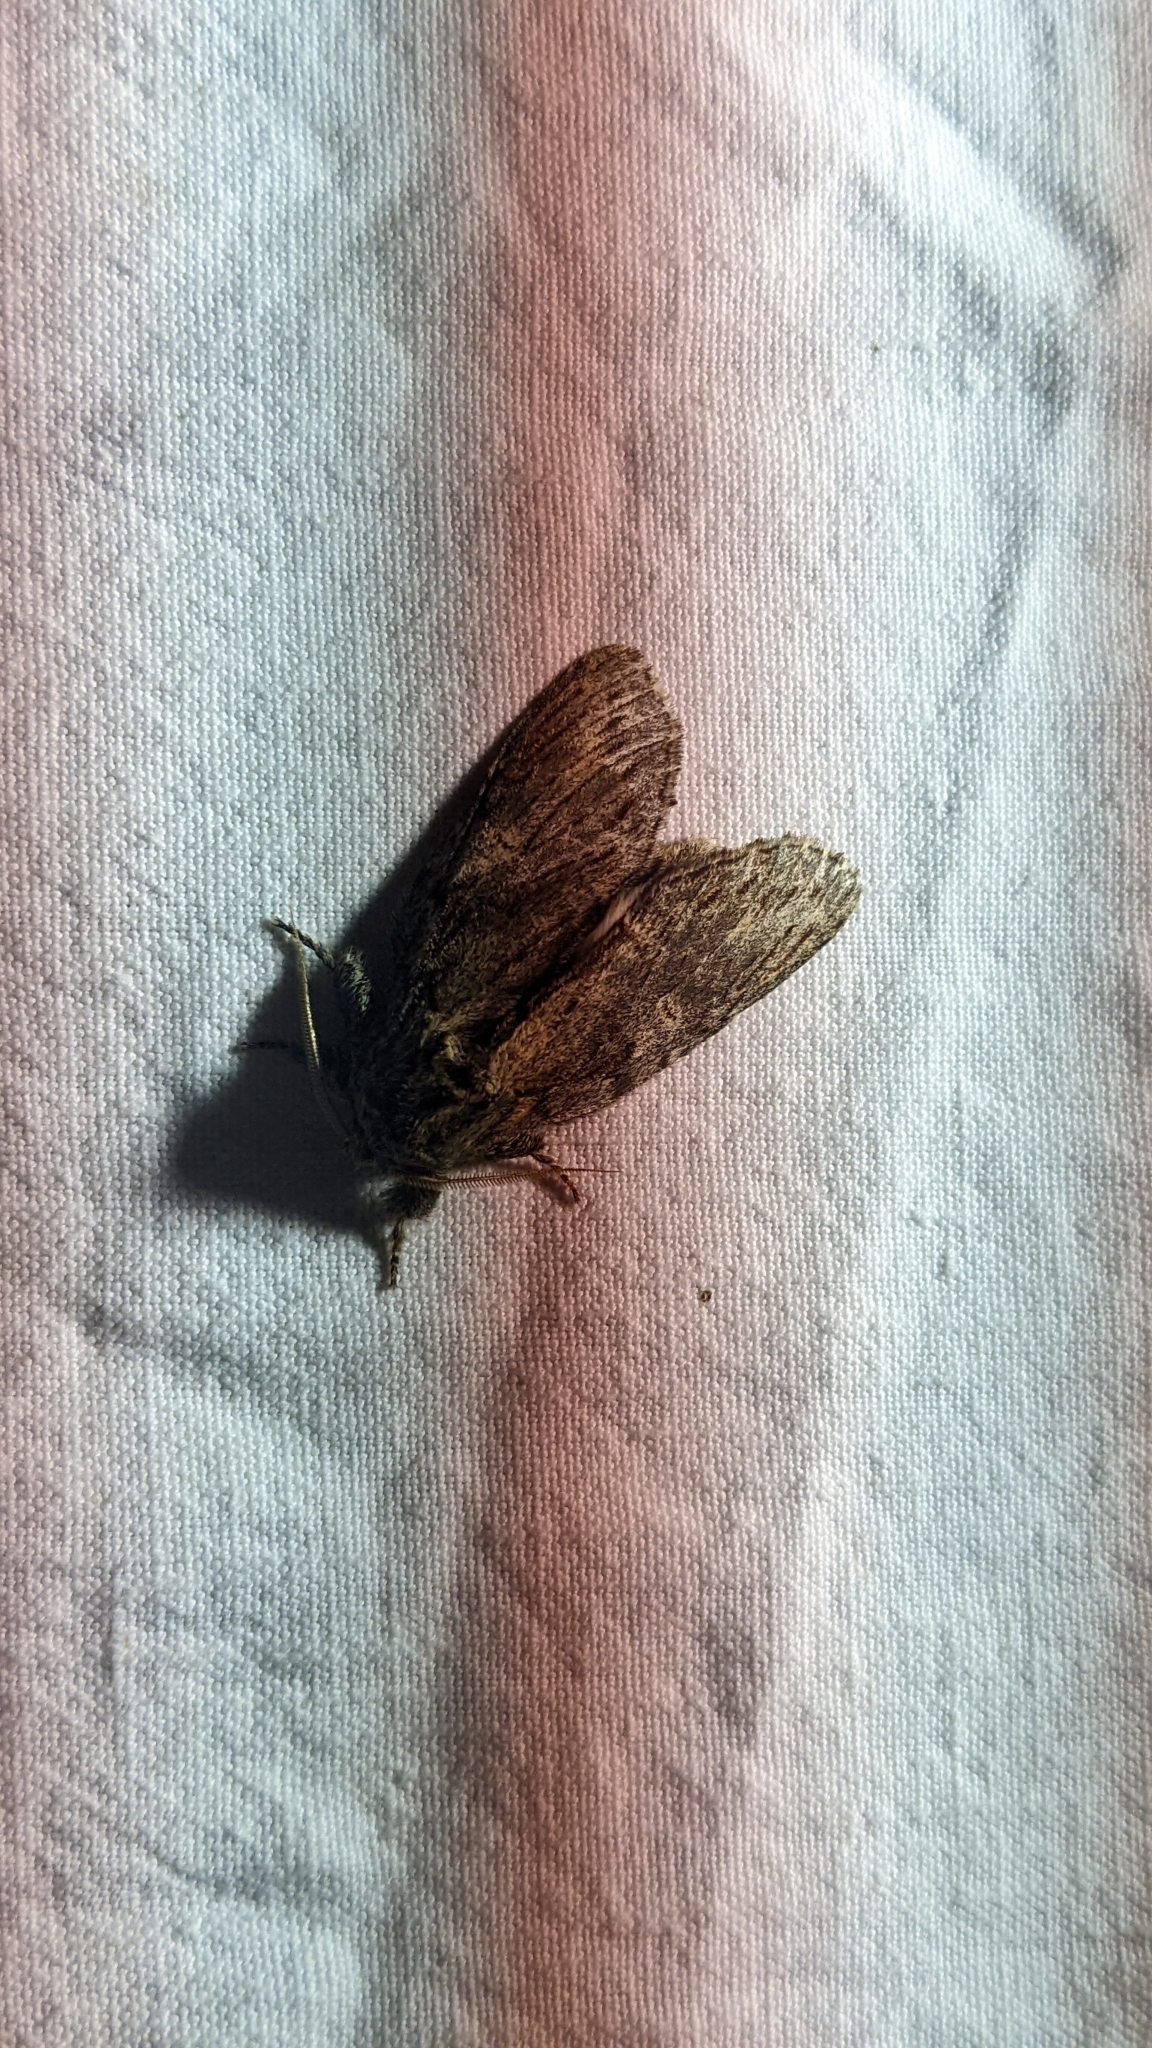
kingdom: Animalia
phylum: Arthropoda
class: Insecta
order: Lepidoptera
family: Notodontidae
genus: Peridea
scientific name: Peridea anceps
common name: Great prominent
